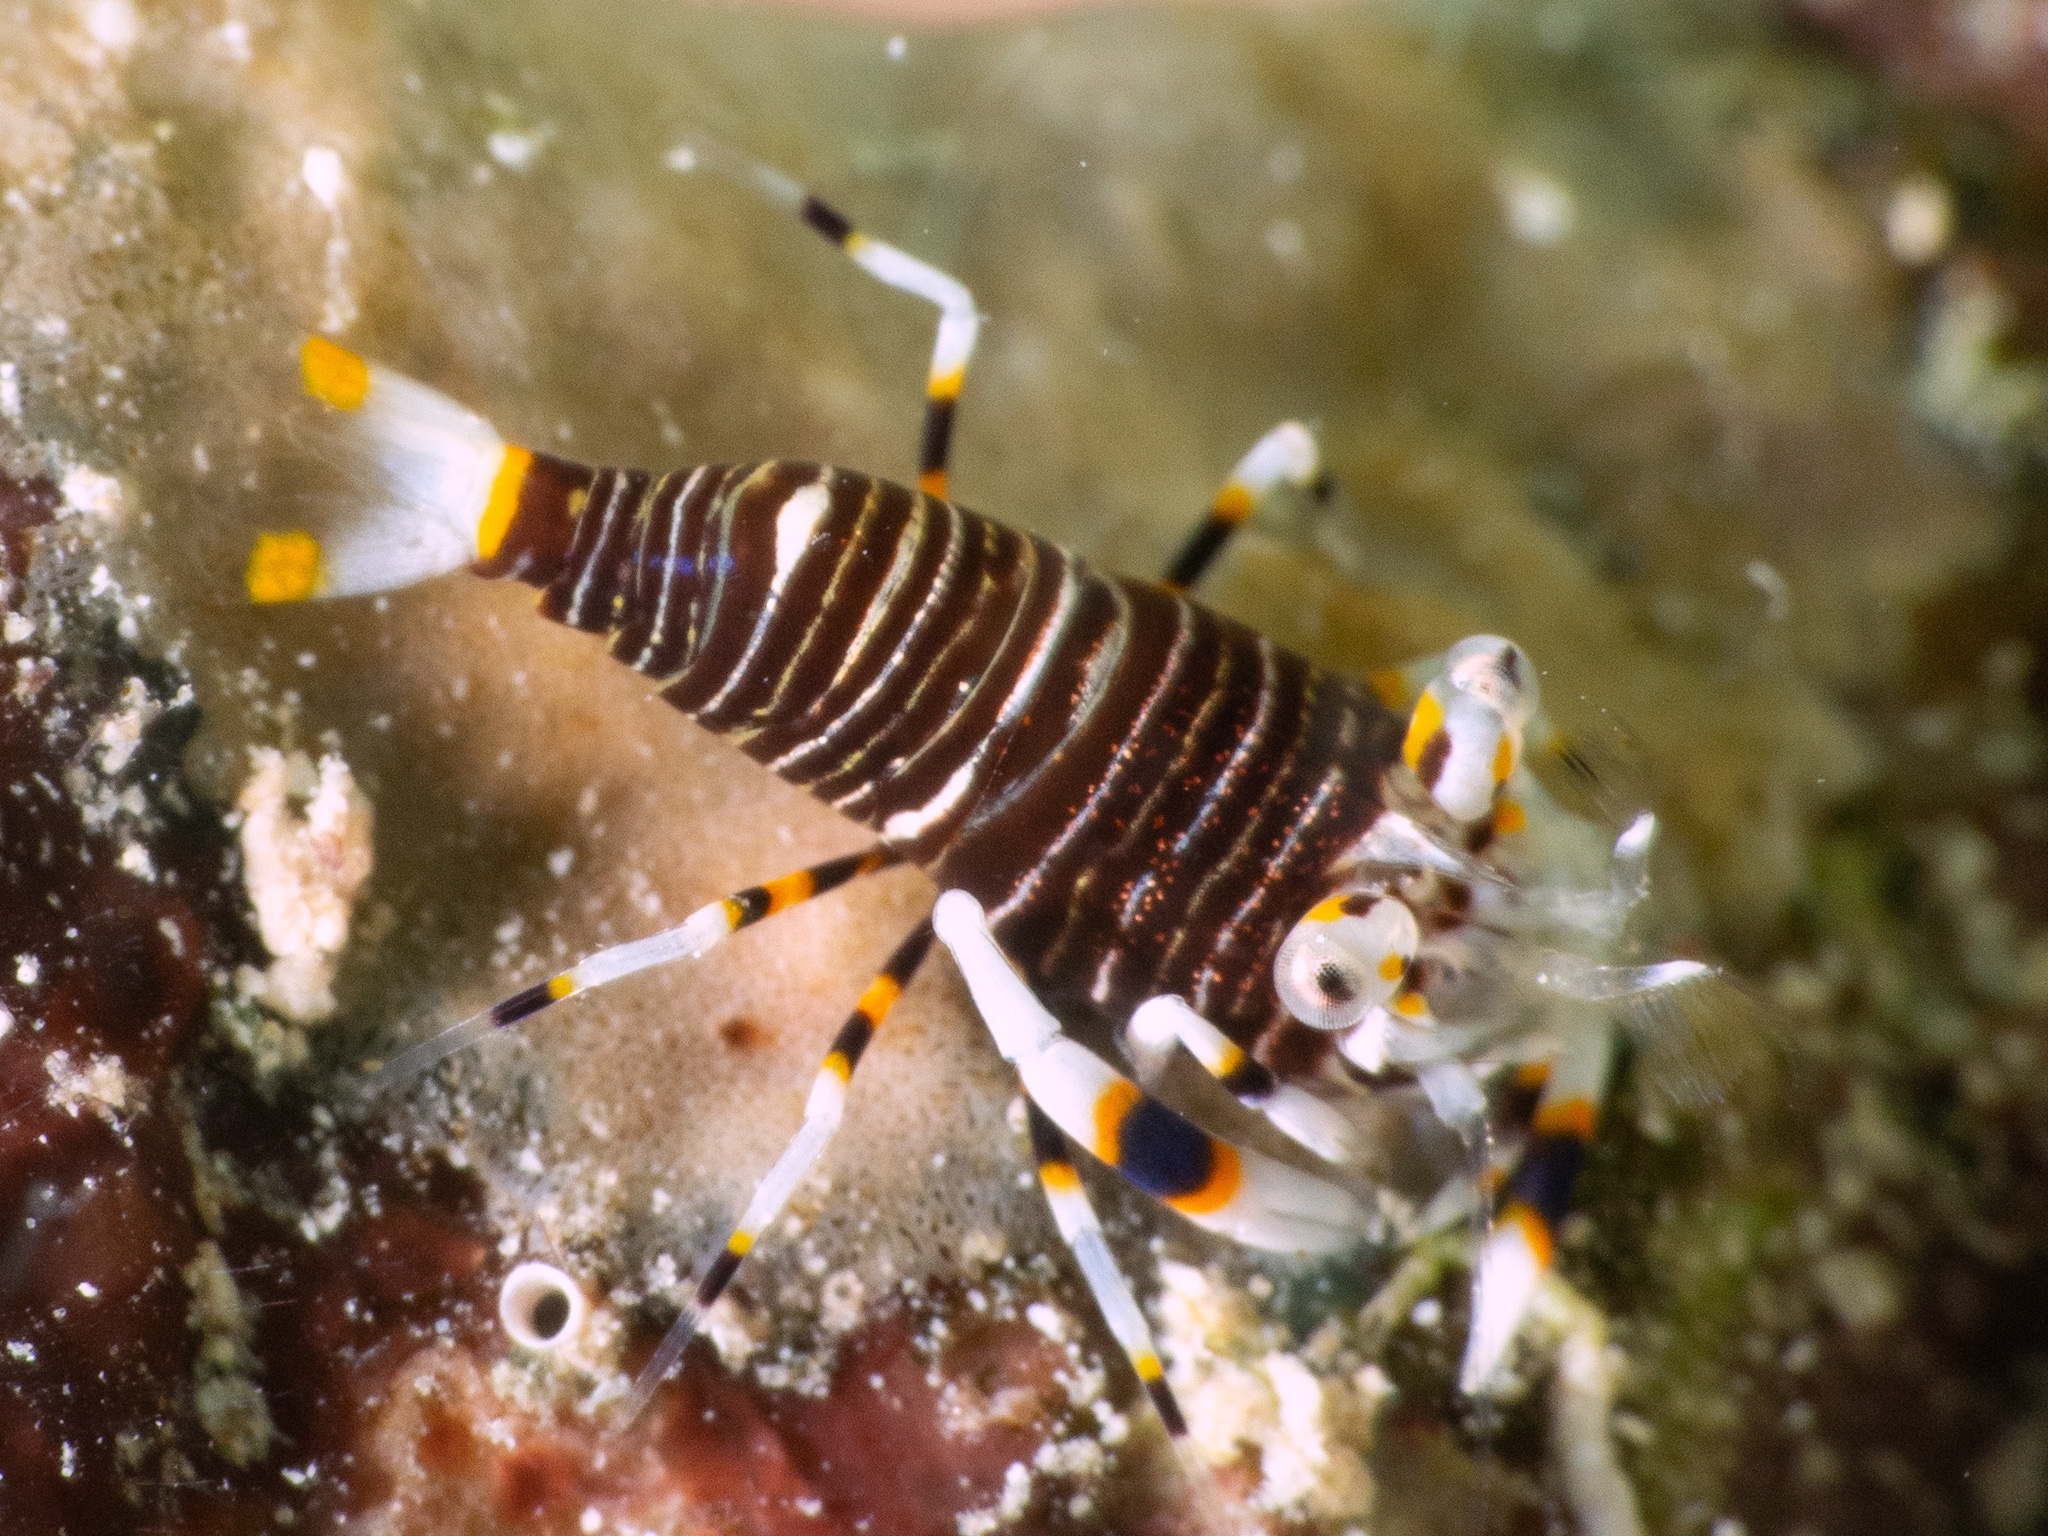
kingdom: Animalia
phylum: Arthropoda
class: Malacostraca
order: Decapoda
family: Palaemonidae
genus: Gnathophyllum
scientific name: Gnathophyllum americanum
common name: Bumblebee shrimp
